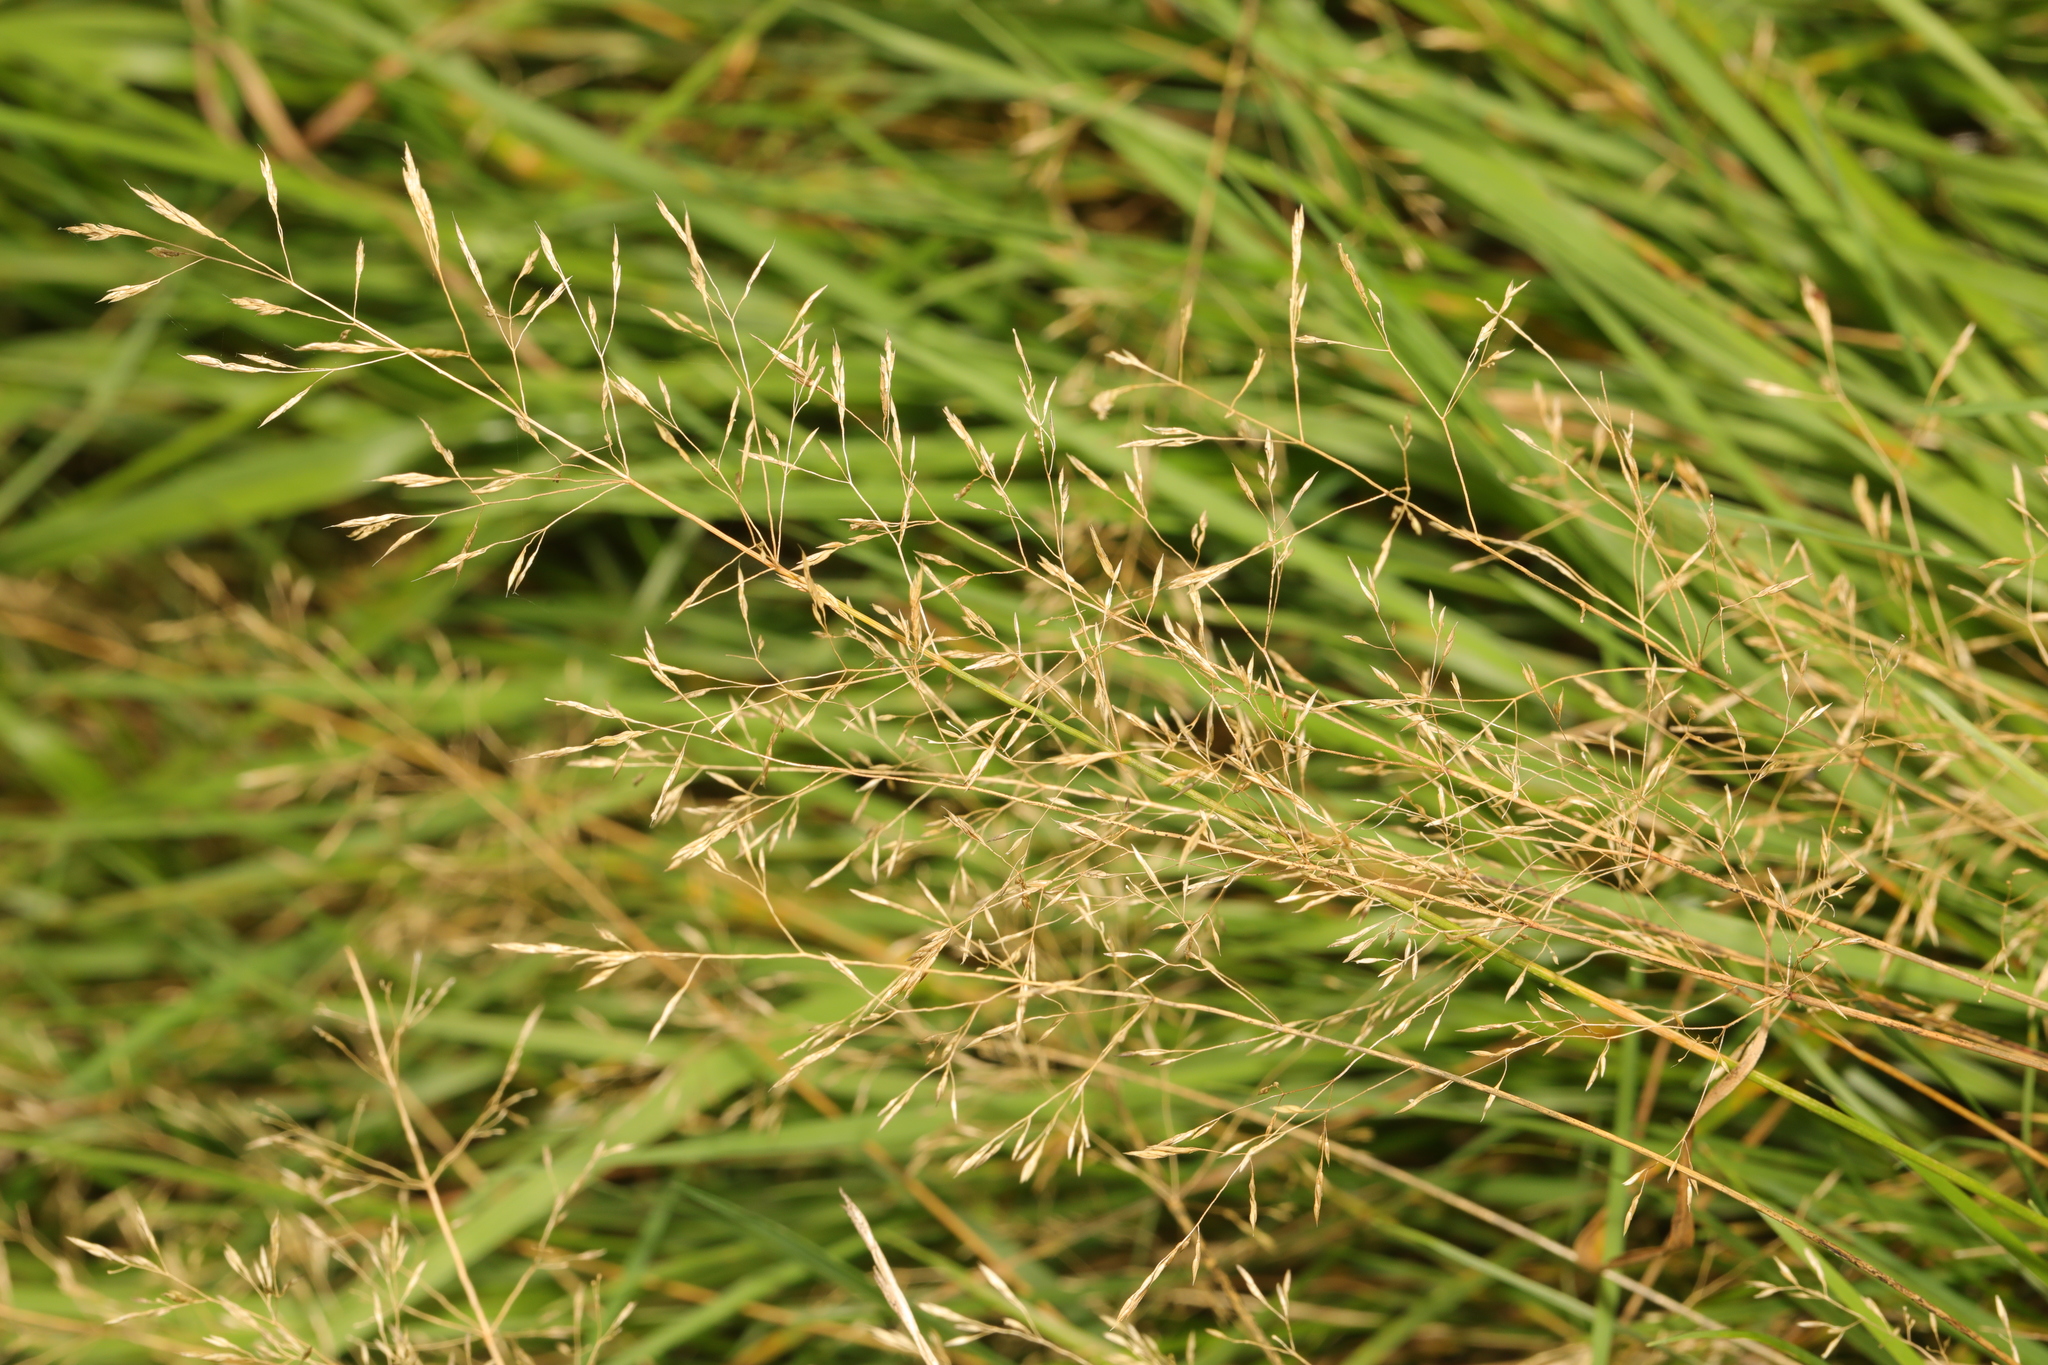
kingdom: Plantae
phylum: Tracheophyta
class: Liliopsida
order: Poales
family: Poaceae
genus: Agrostis
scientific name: Agrostis stolonifera
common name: Creeping bentgrass
